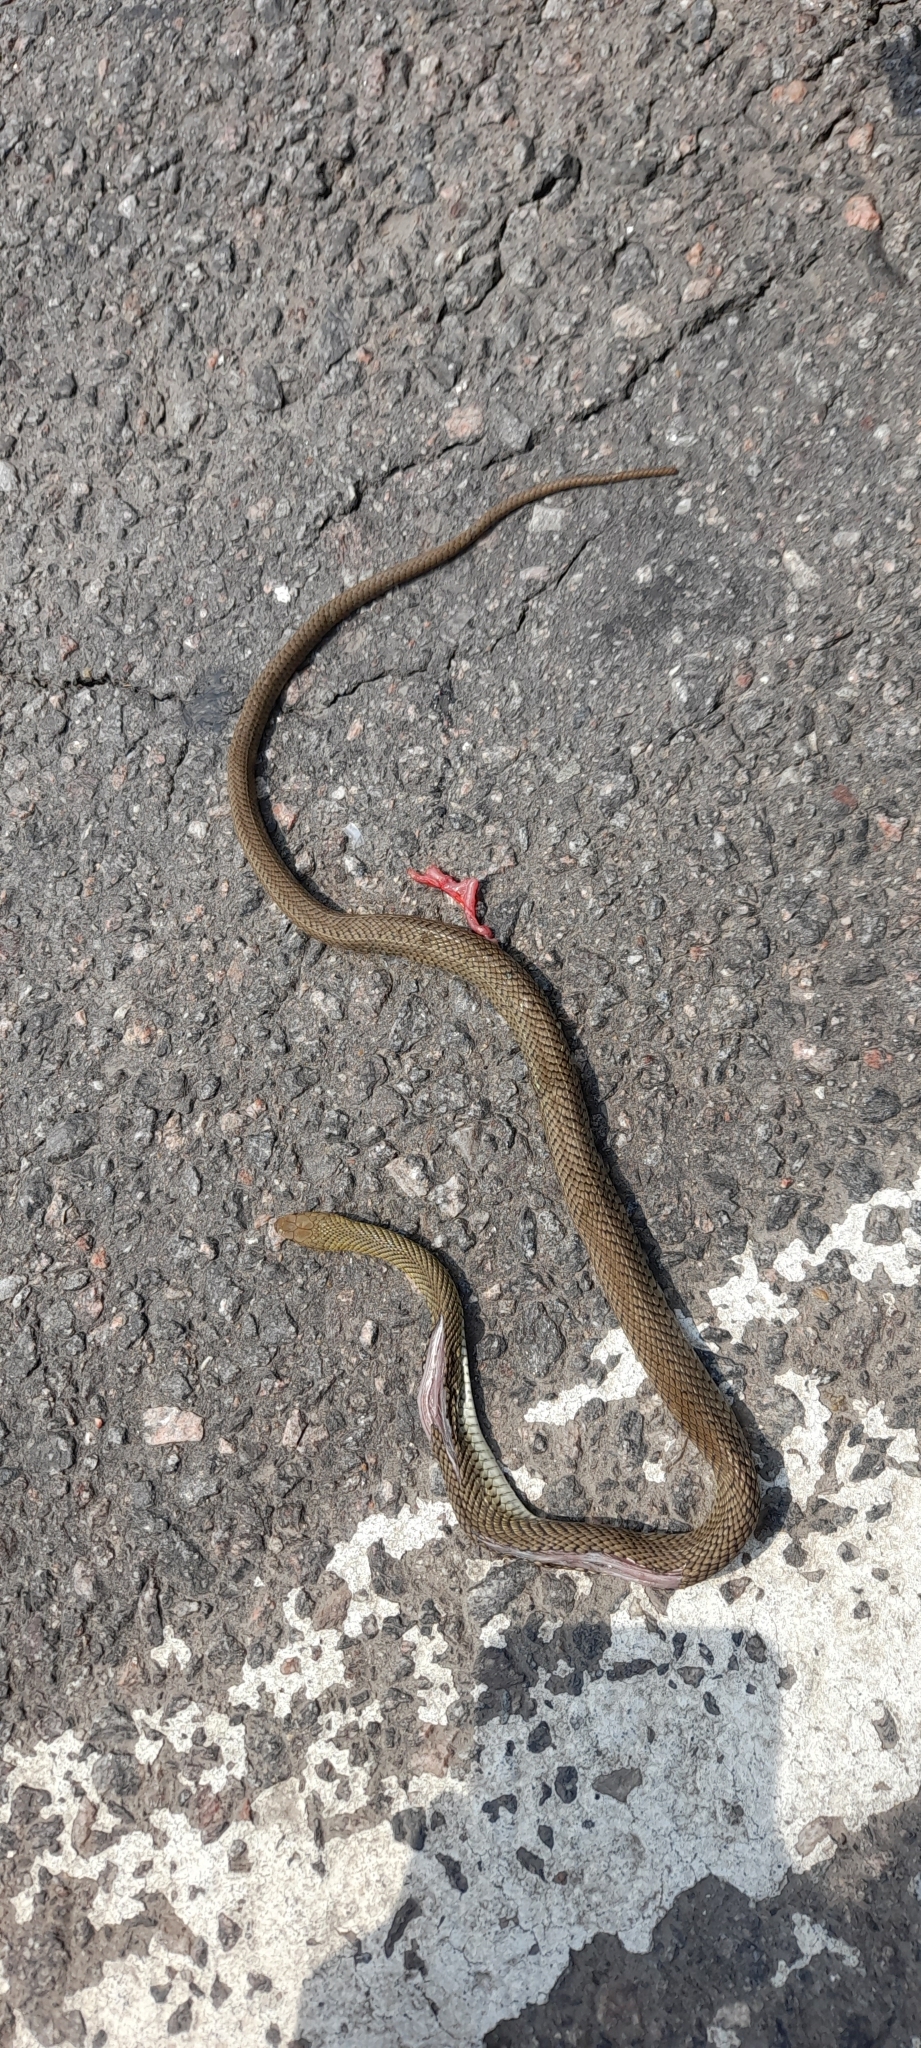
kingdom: Animalia
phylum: Chordata
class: Squamata
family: Colubridae
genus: Philodryas
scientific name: Philodryas patagoniensis
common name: Patagonia green racer
